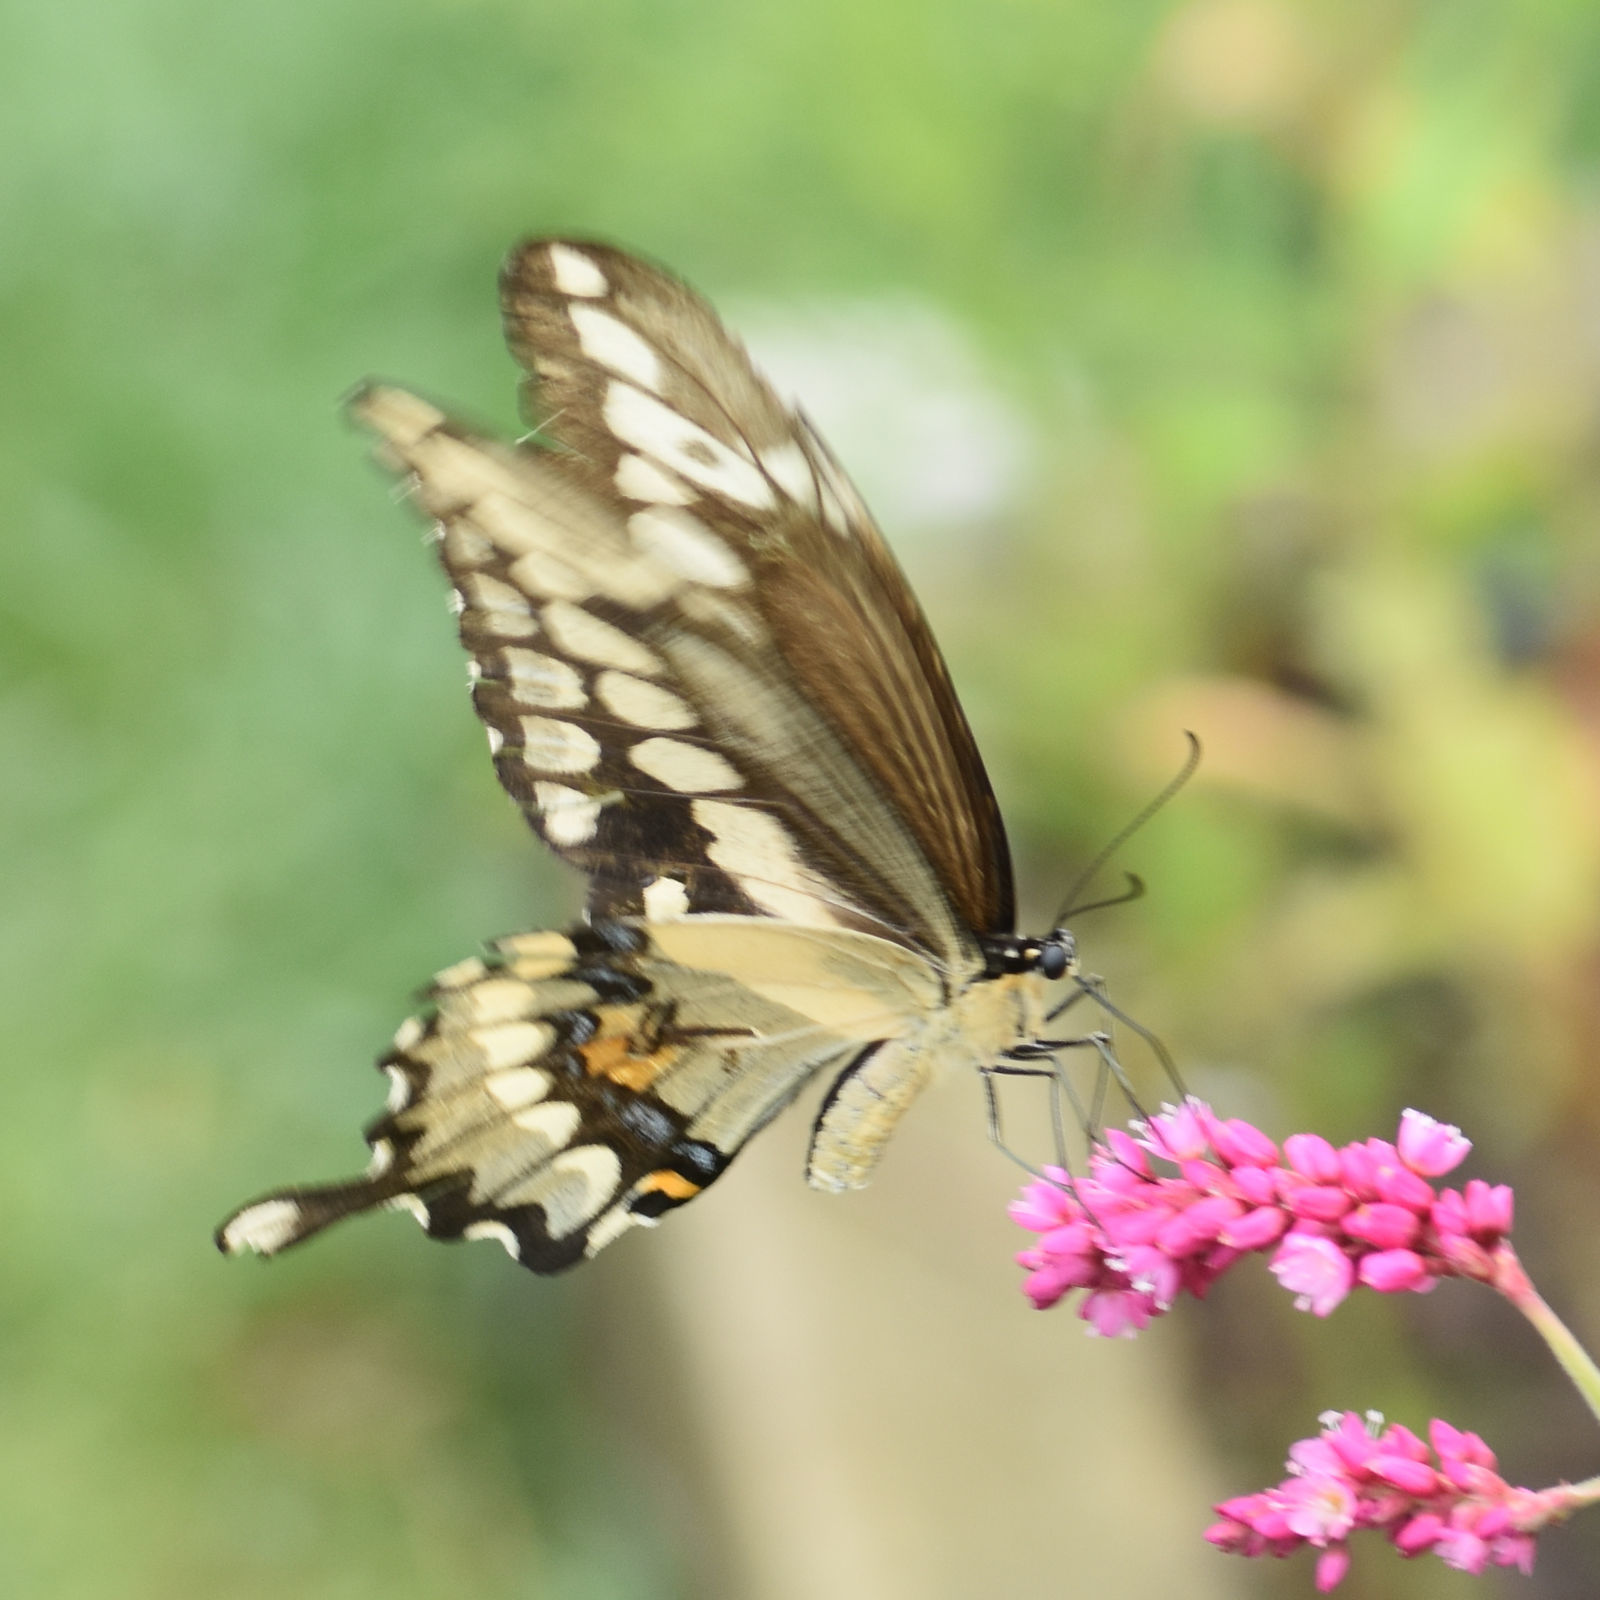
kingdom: Animalia
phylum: Arthropoda
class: Insecta
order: Lepidoptera
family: Papilionidae
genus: Papilio
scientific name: Papilio cresphontes
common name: Giant swallowtail
